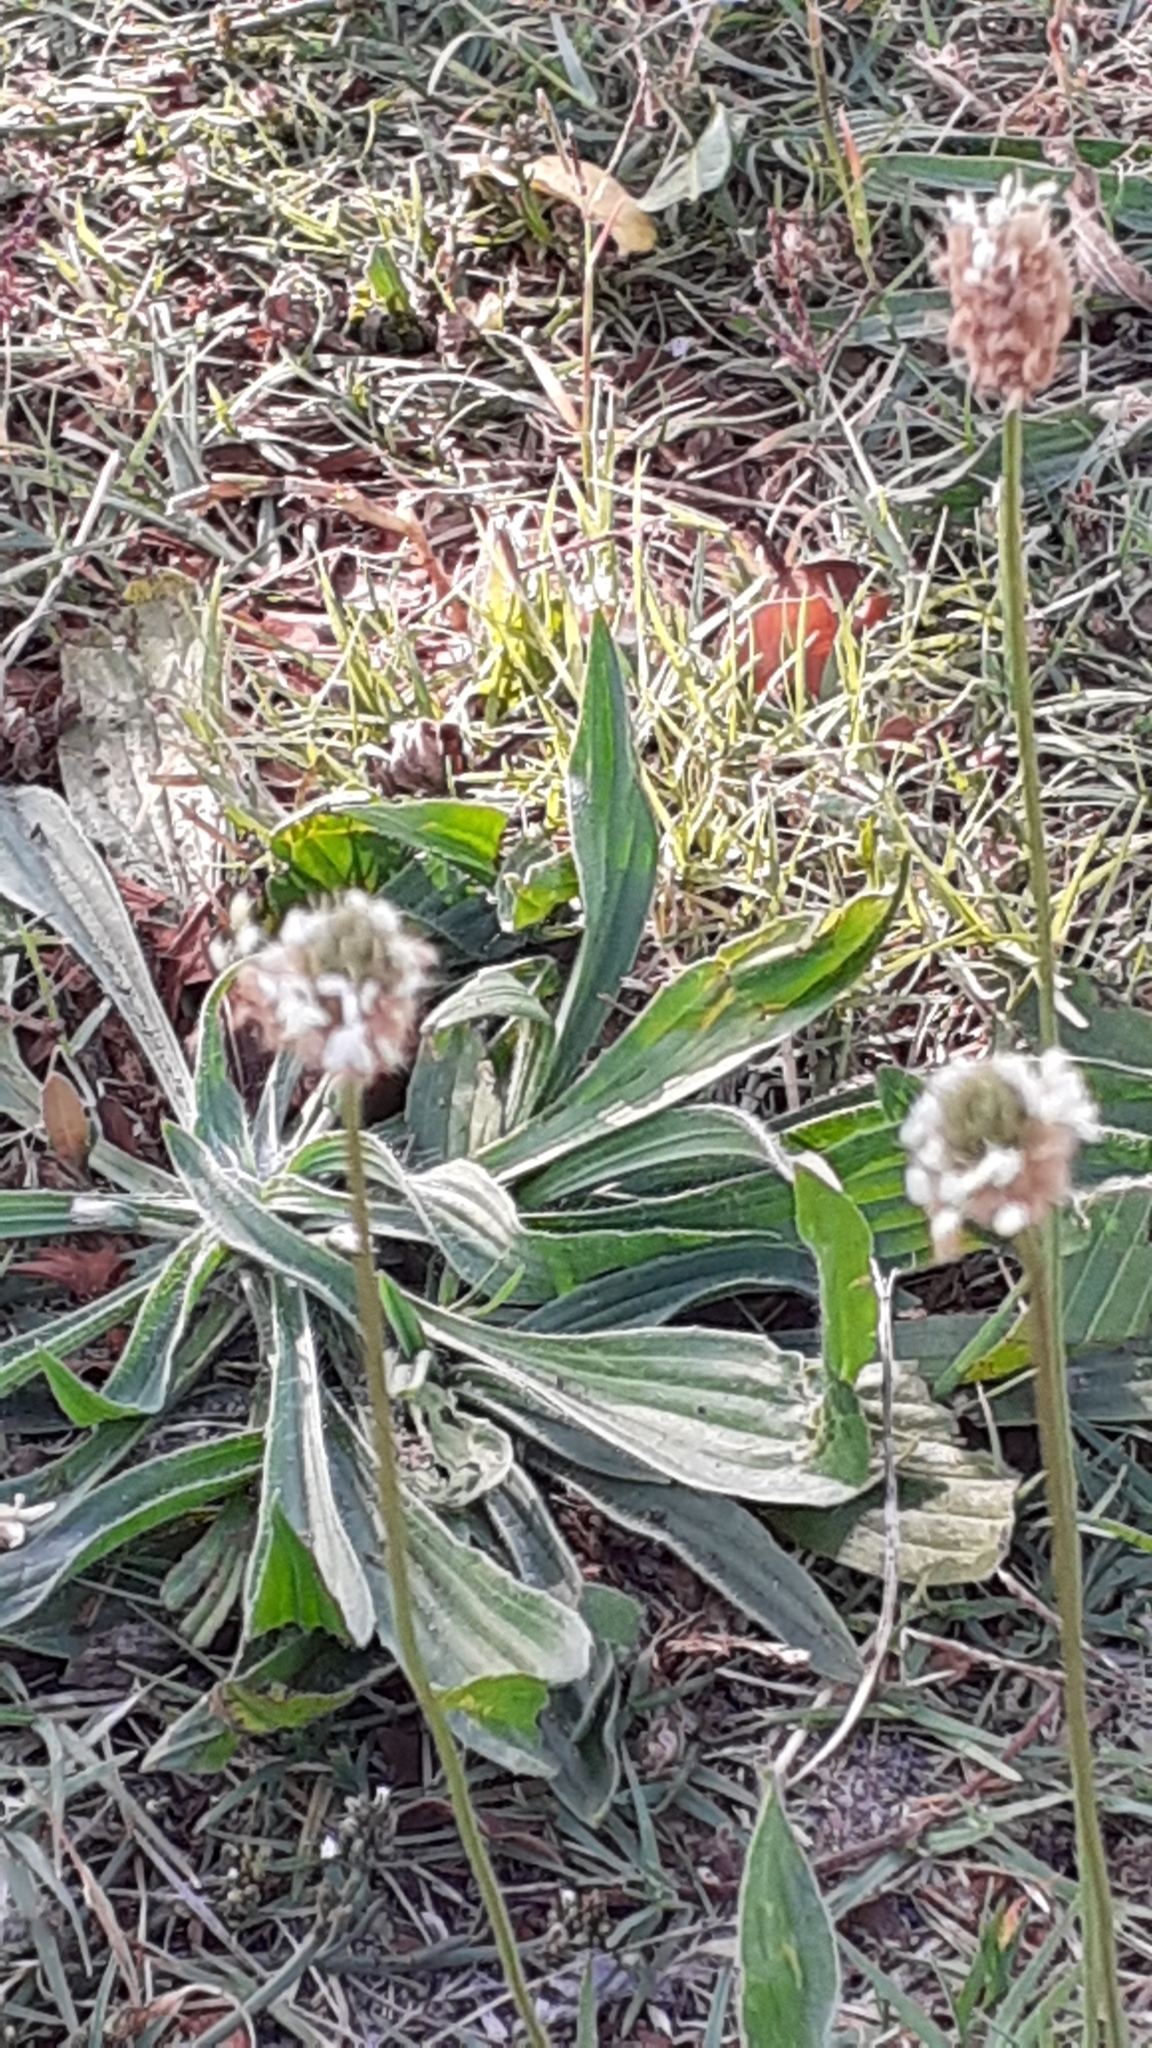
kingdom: Plantae
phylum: Tracheophyta
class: Magnoliopsida
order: Lamiales
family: Plantaginaceae
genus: Plantago
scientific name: Plantago lanceolata
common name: Ribwort plantain
